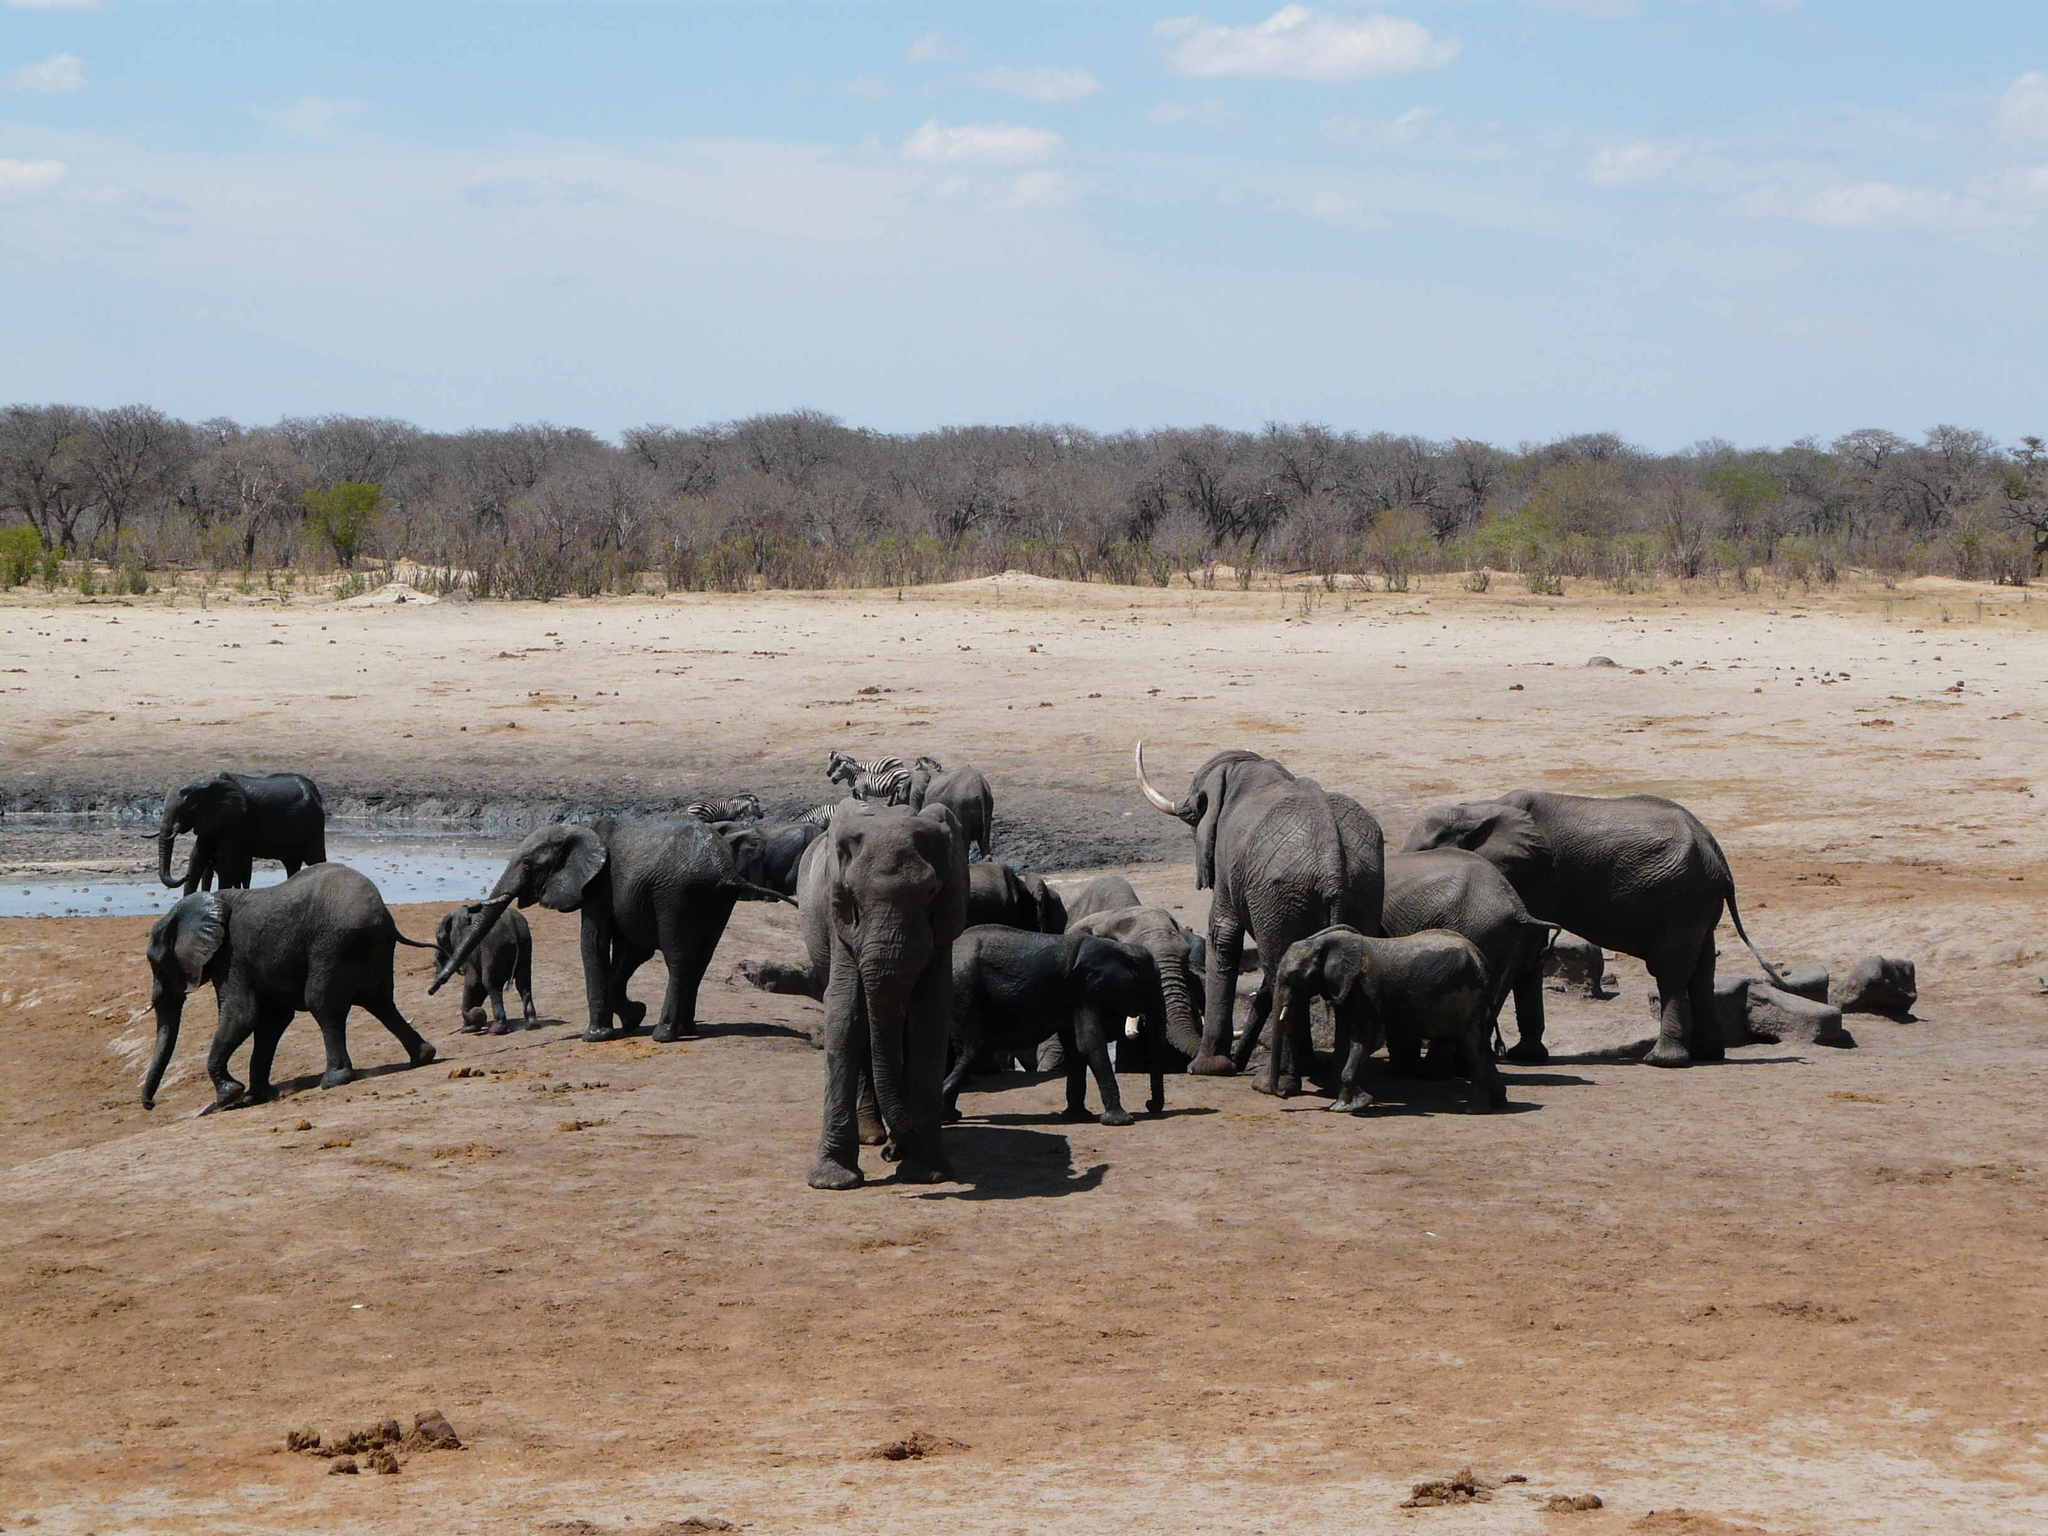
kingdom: Animalia
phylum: Chordata
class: Mammalia
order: Proboscidea
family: Elephantidae
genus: Loxodonta
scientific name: Loxodonta africana
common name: African elephant
